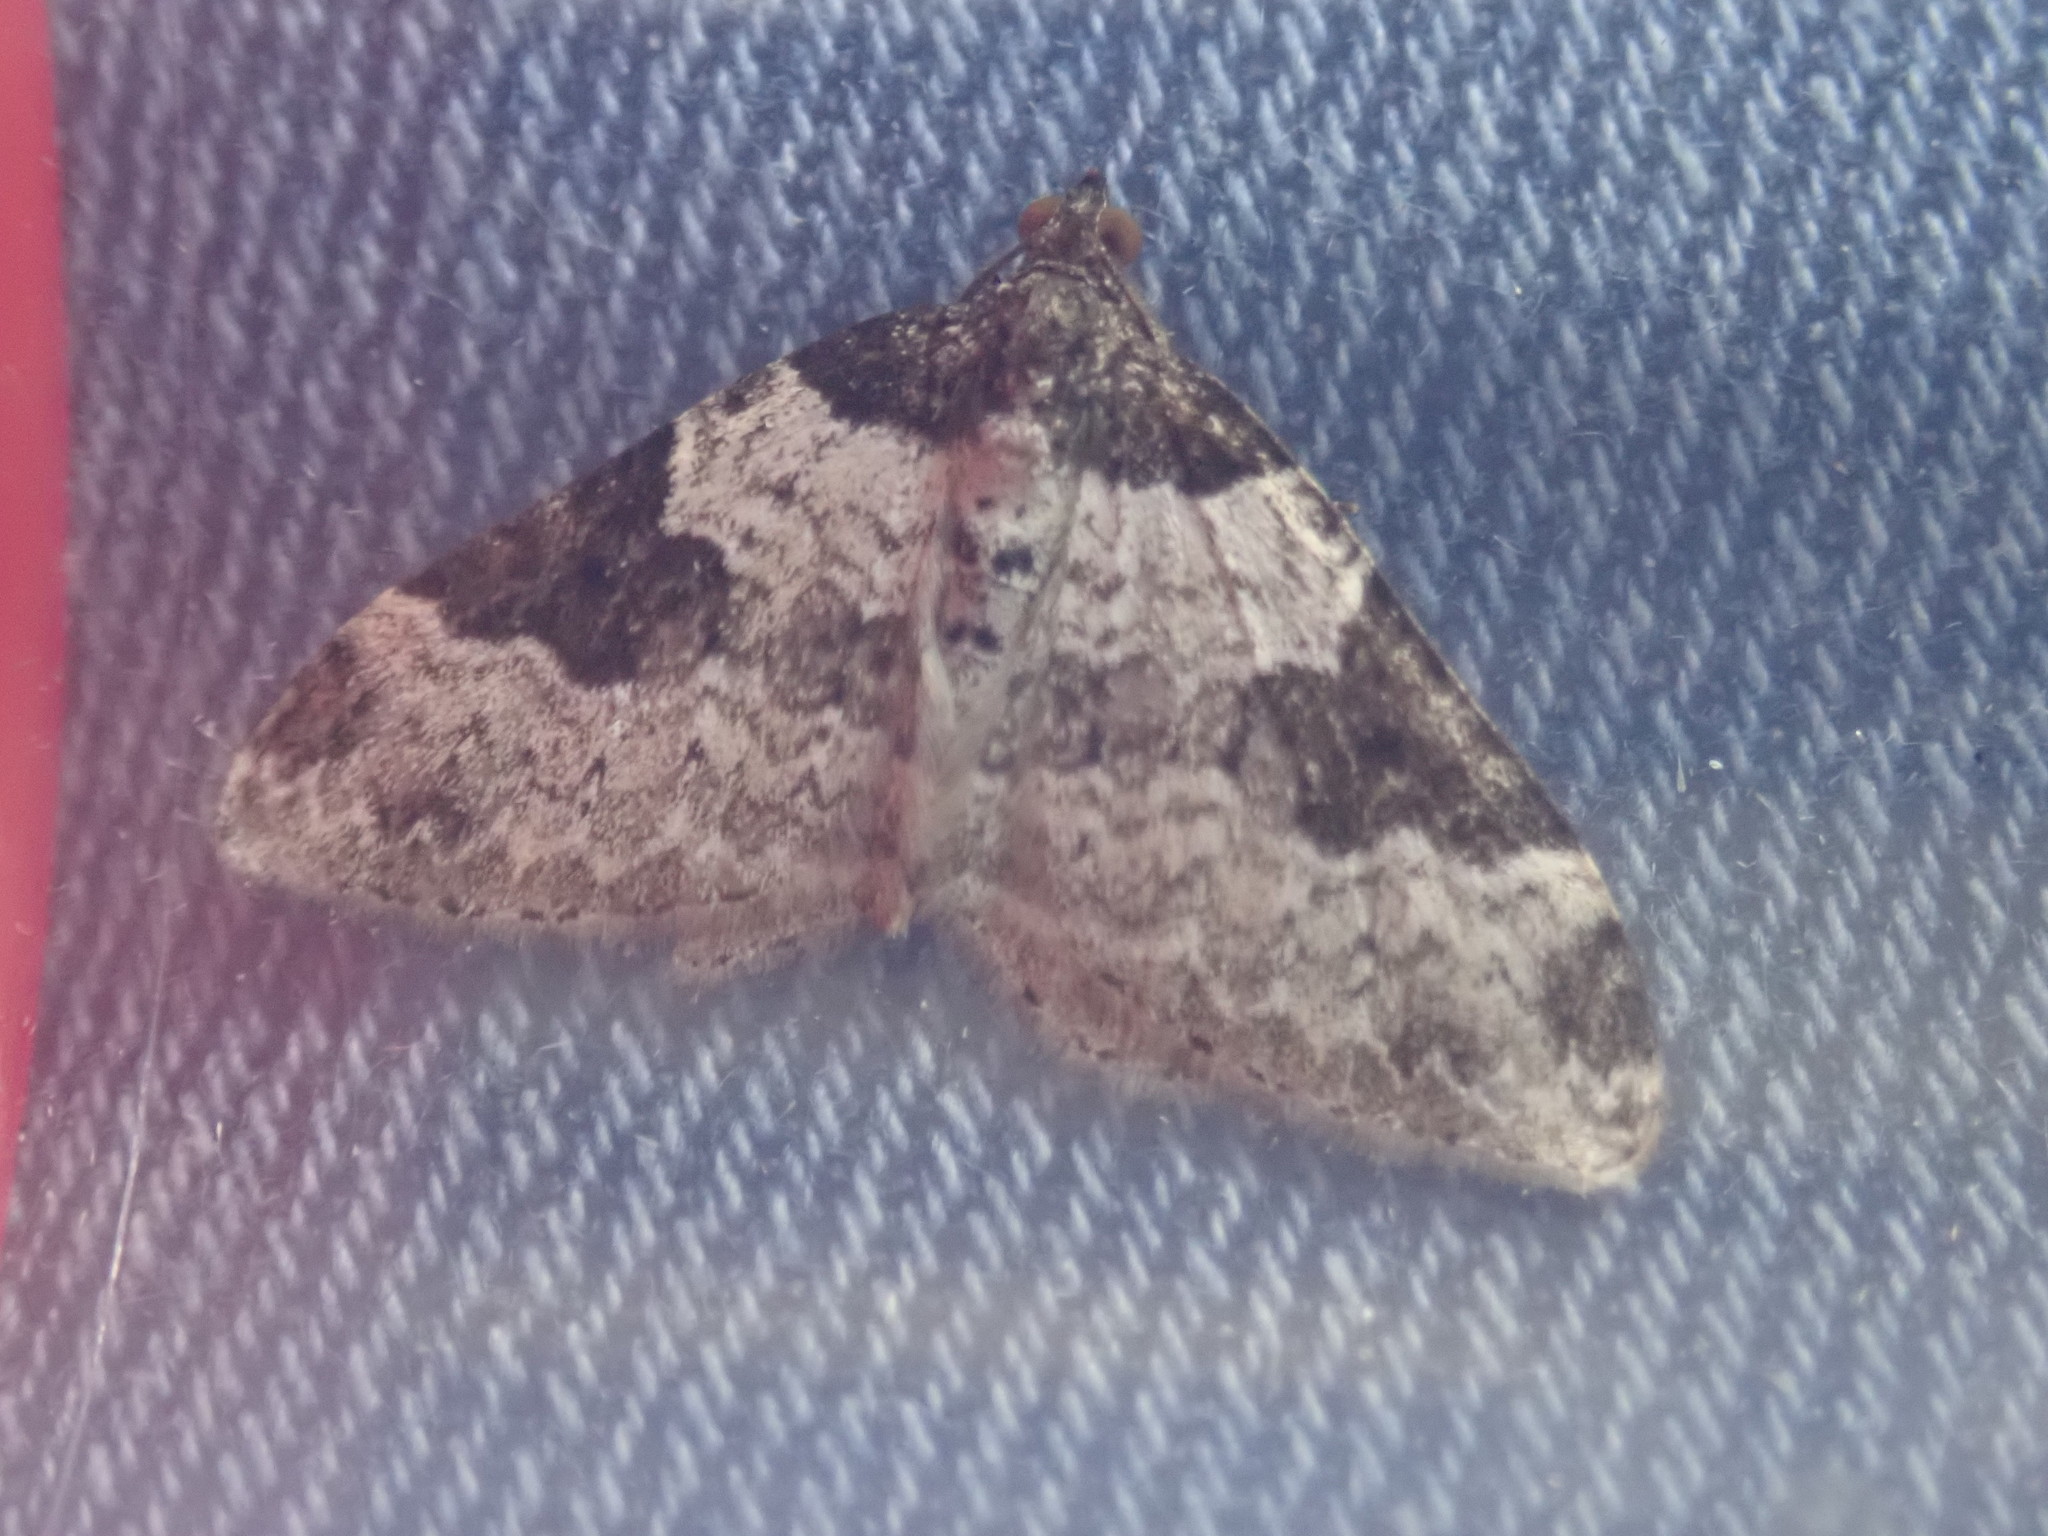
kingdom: Animalia
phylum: Arthropoda
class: Insecta
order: Lepidoptera
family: Geometridae
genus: Xanthorhoe
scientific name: Xanthorhoe fluctuata
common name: Garden carpet
